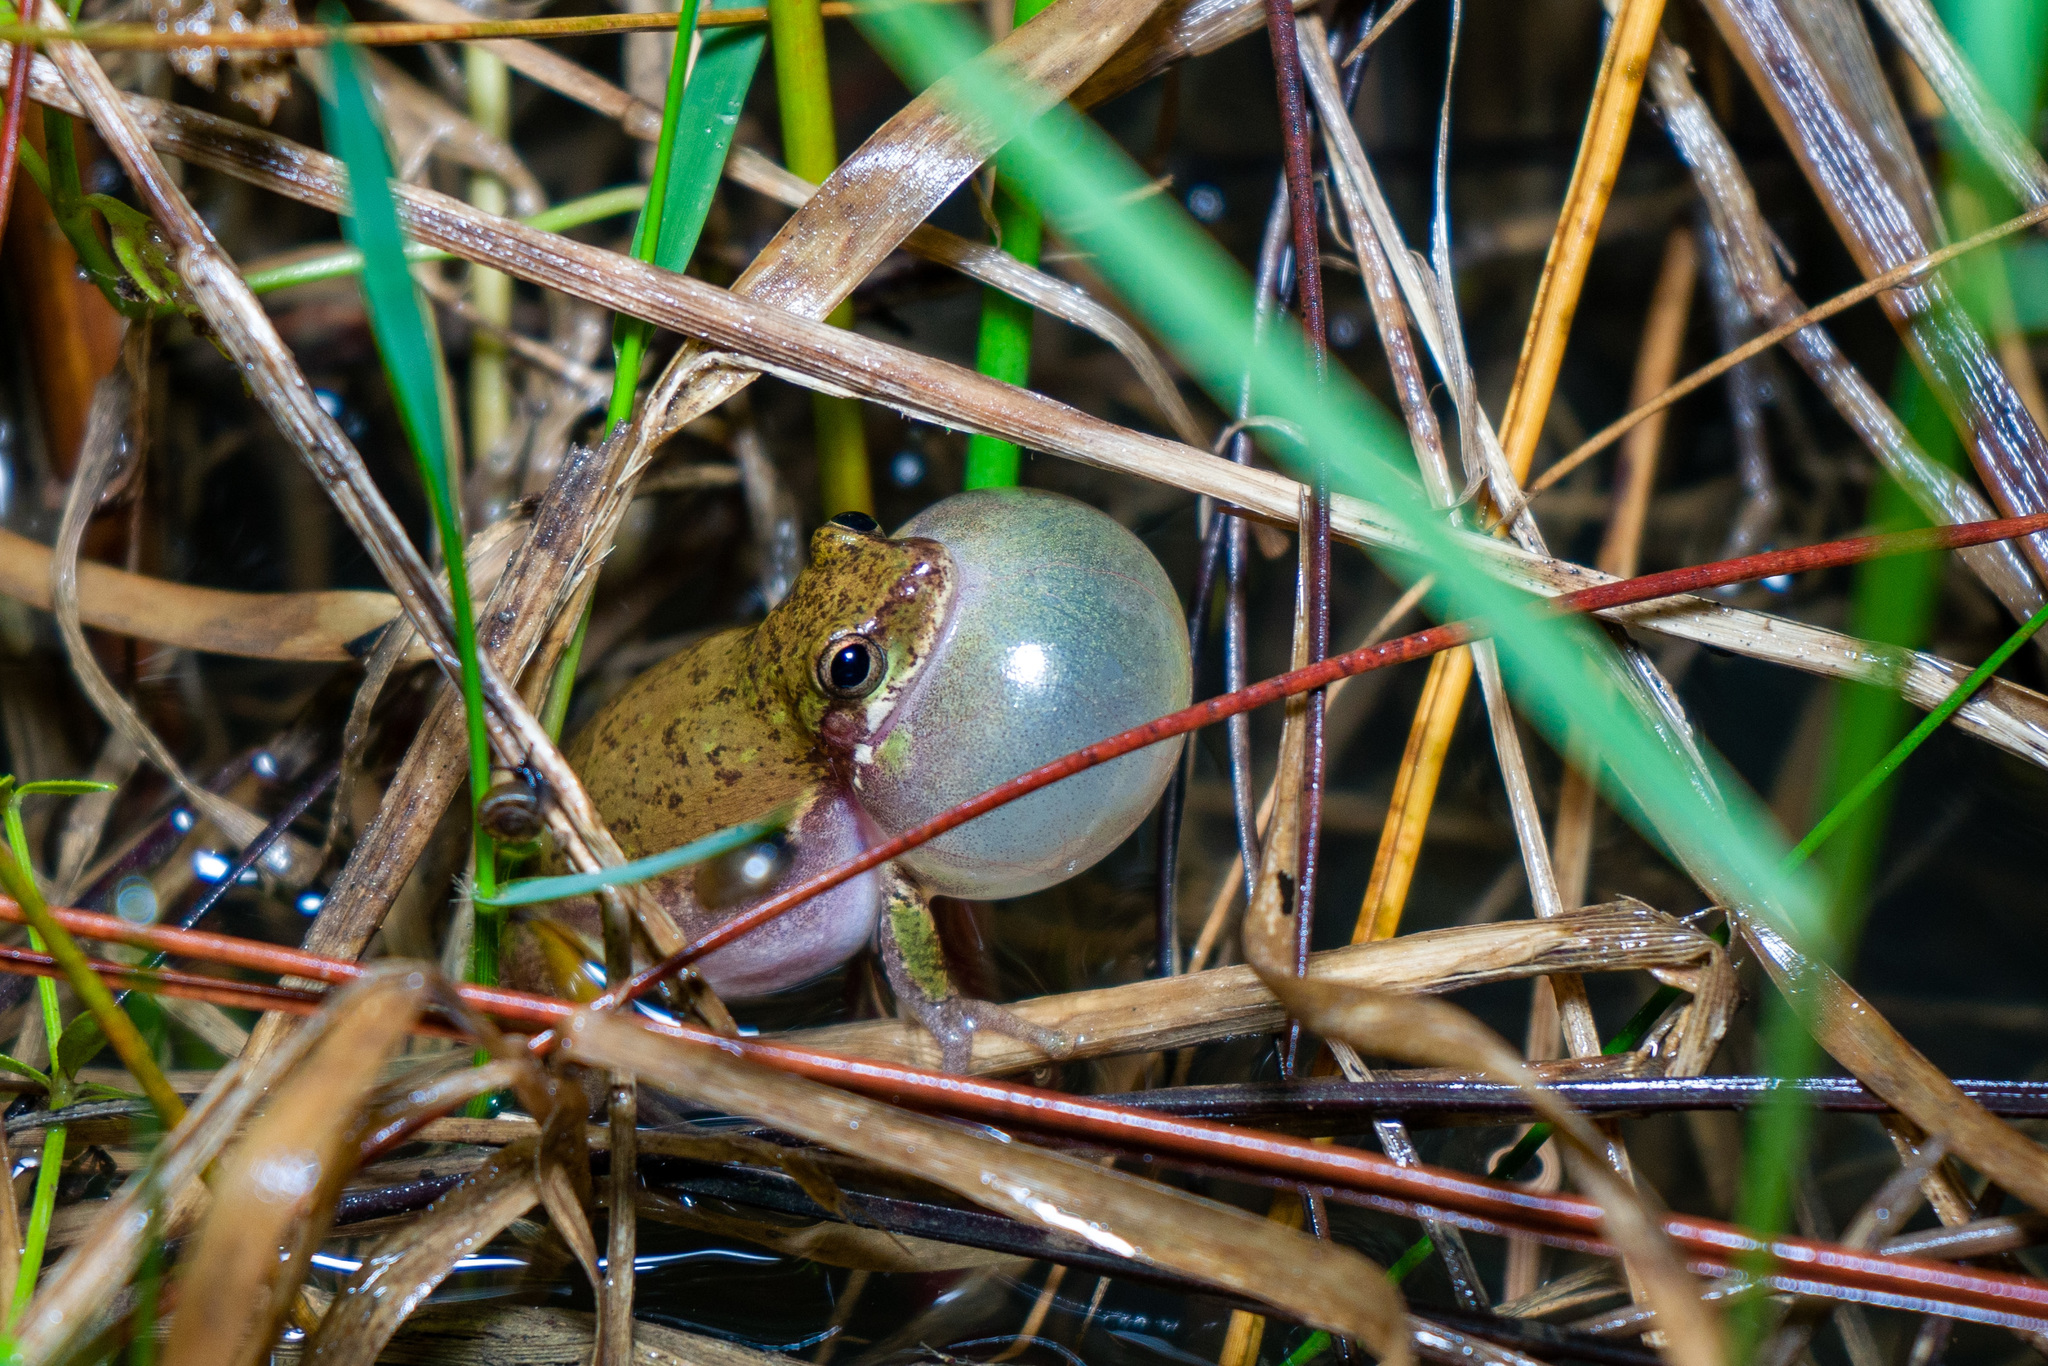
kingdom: Animalia
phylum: Chordata
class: Amphibia
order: Anura
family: Hylidae
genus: Dryophytes
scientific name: Dryophytes squirellus
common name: Squirrel treefrog
